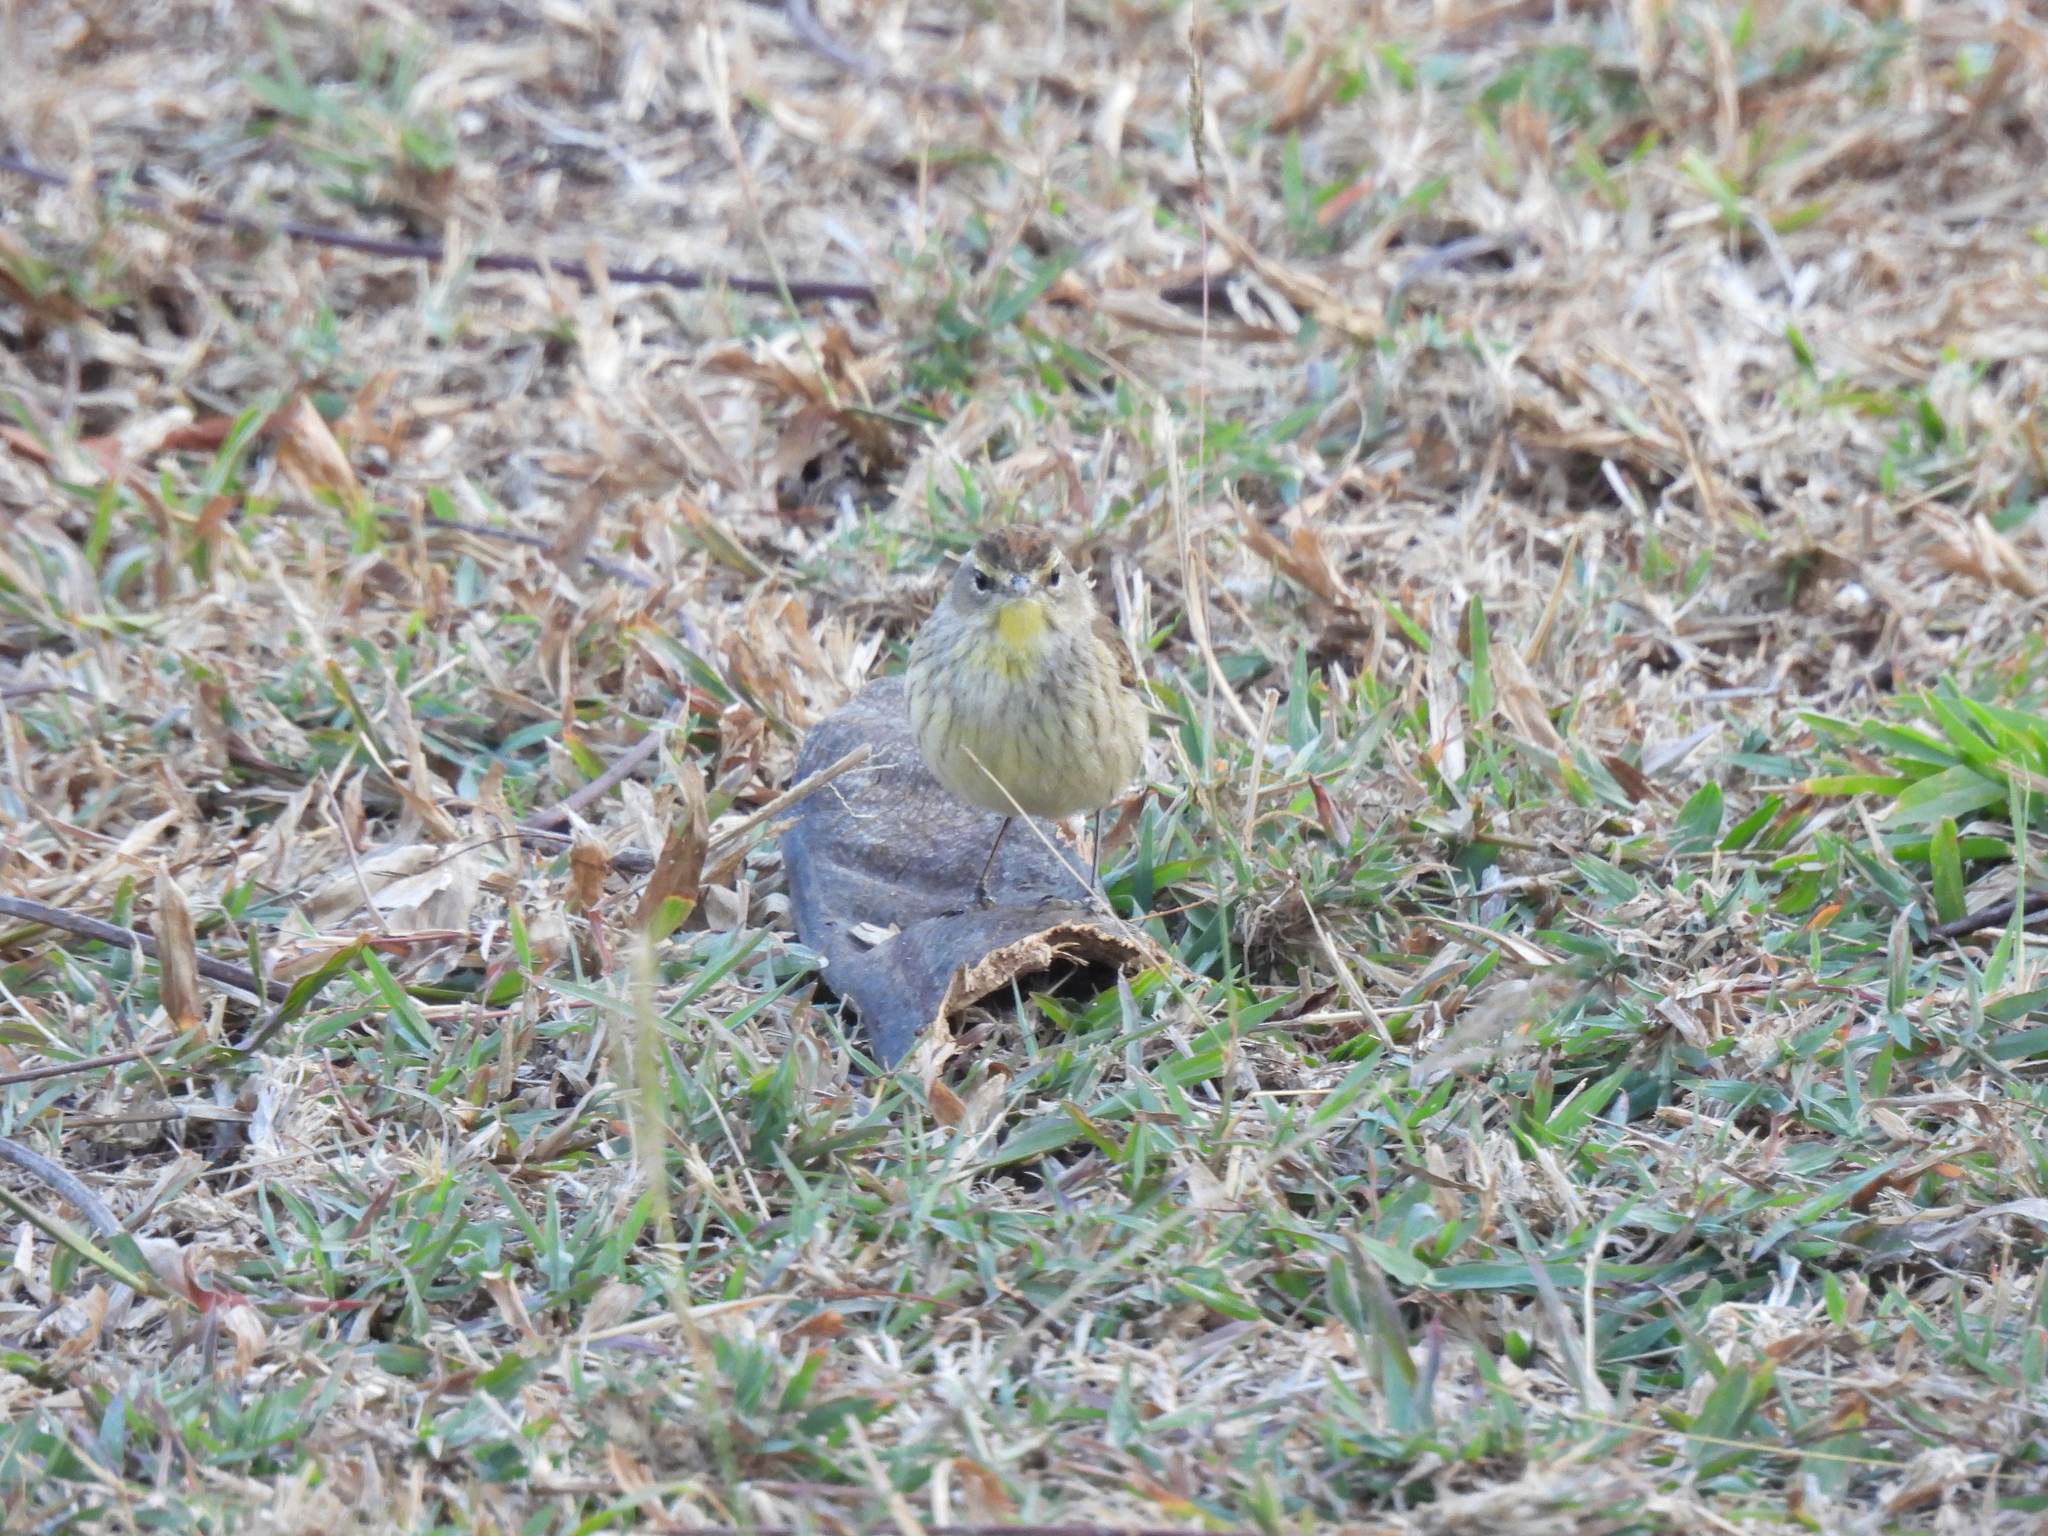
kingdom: Animalia
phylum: Chordata
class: Aves
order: Passeriformes
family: Parulidae
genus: Setophaga
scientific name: Setophaga palmarum
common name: Palm warbler
